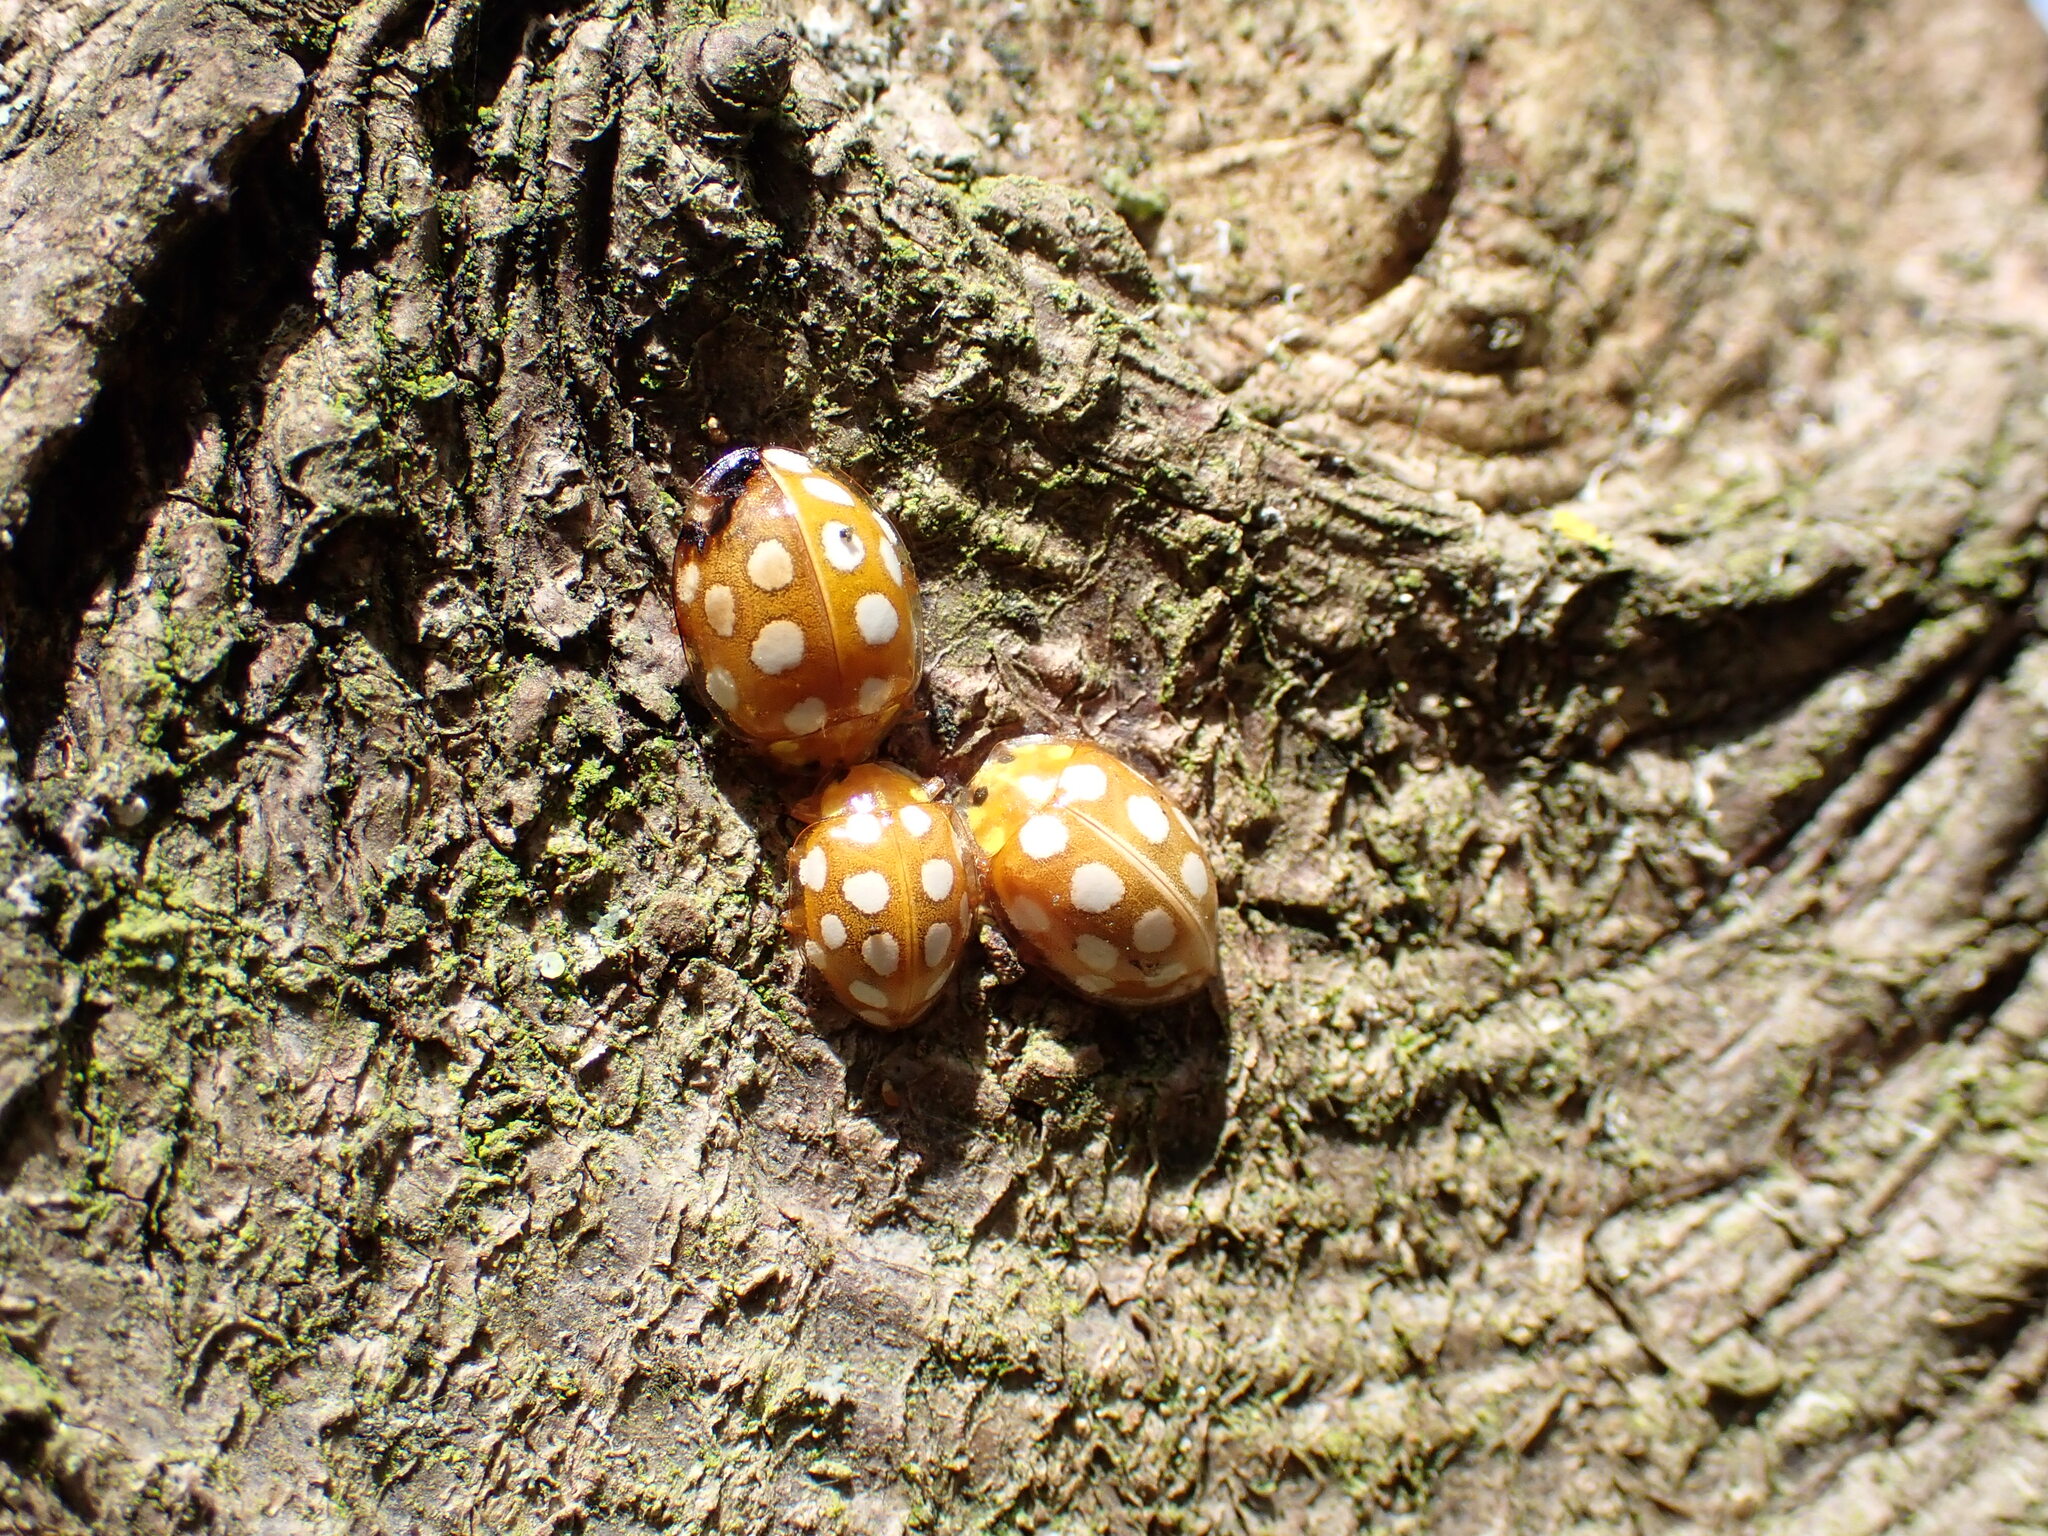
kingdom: Animalia
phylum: Arthropoda
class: Insecta
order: Coleoptera
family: Coccinellidae
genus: Halyzia
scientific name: Halyzia sedecimguttata
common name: Orange ladybird
